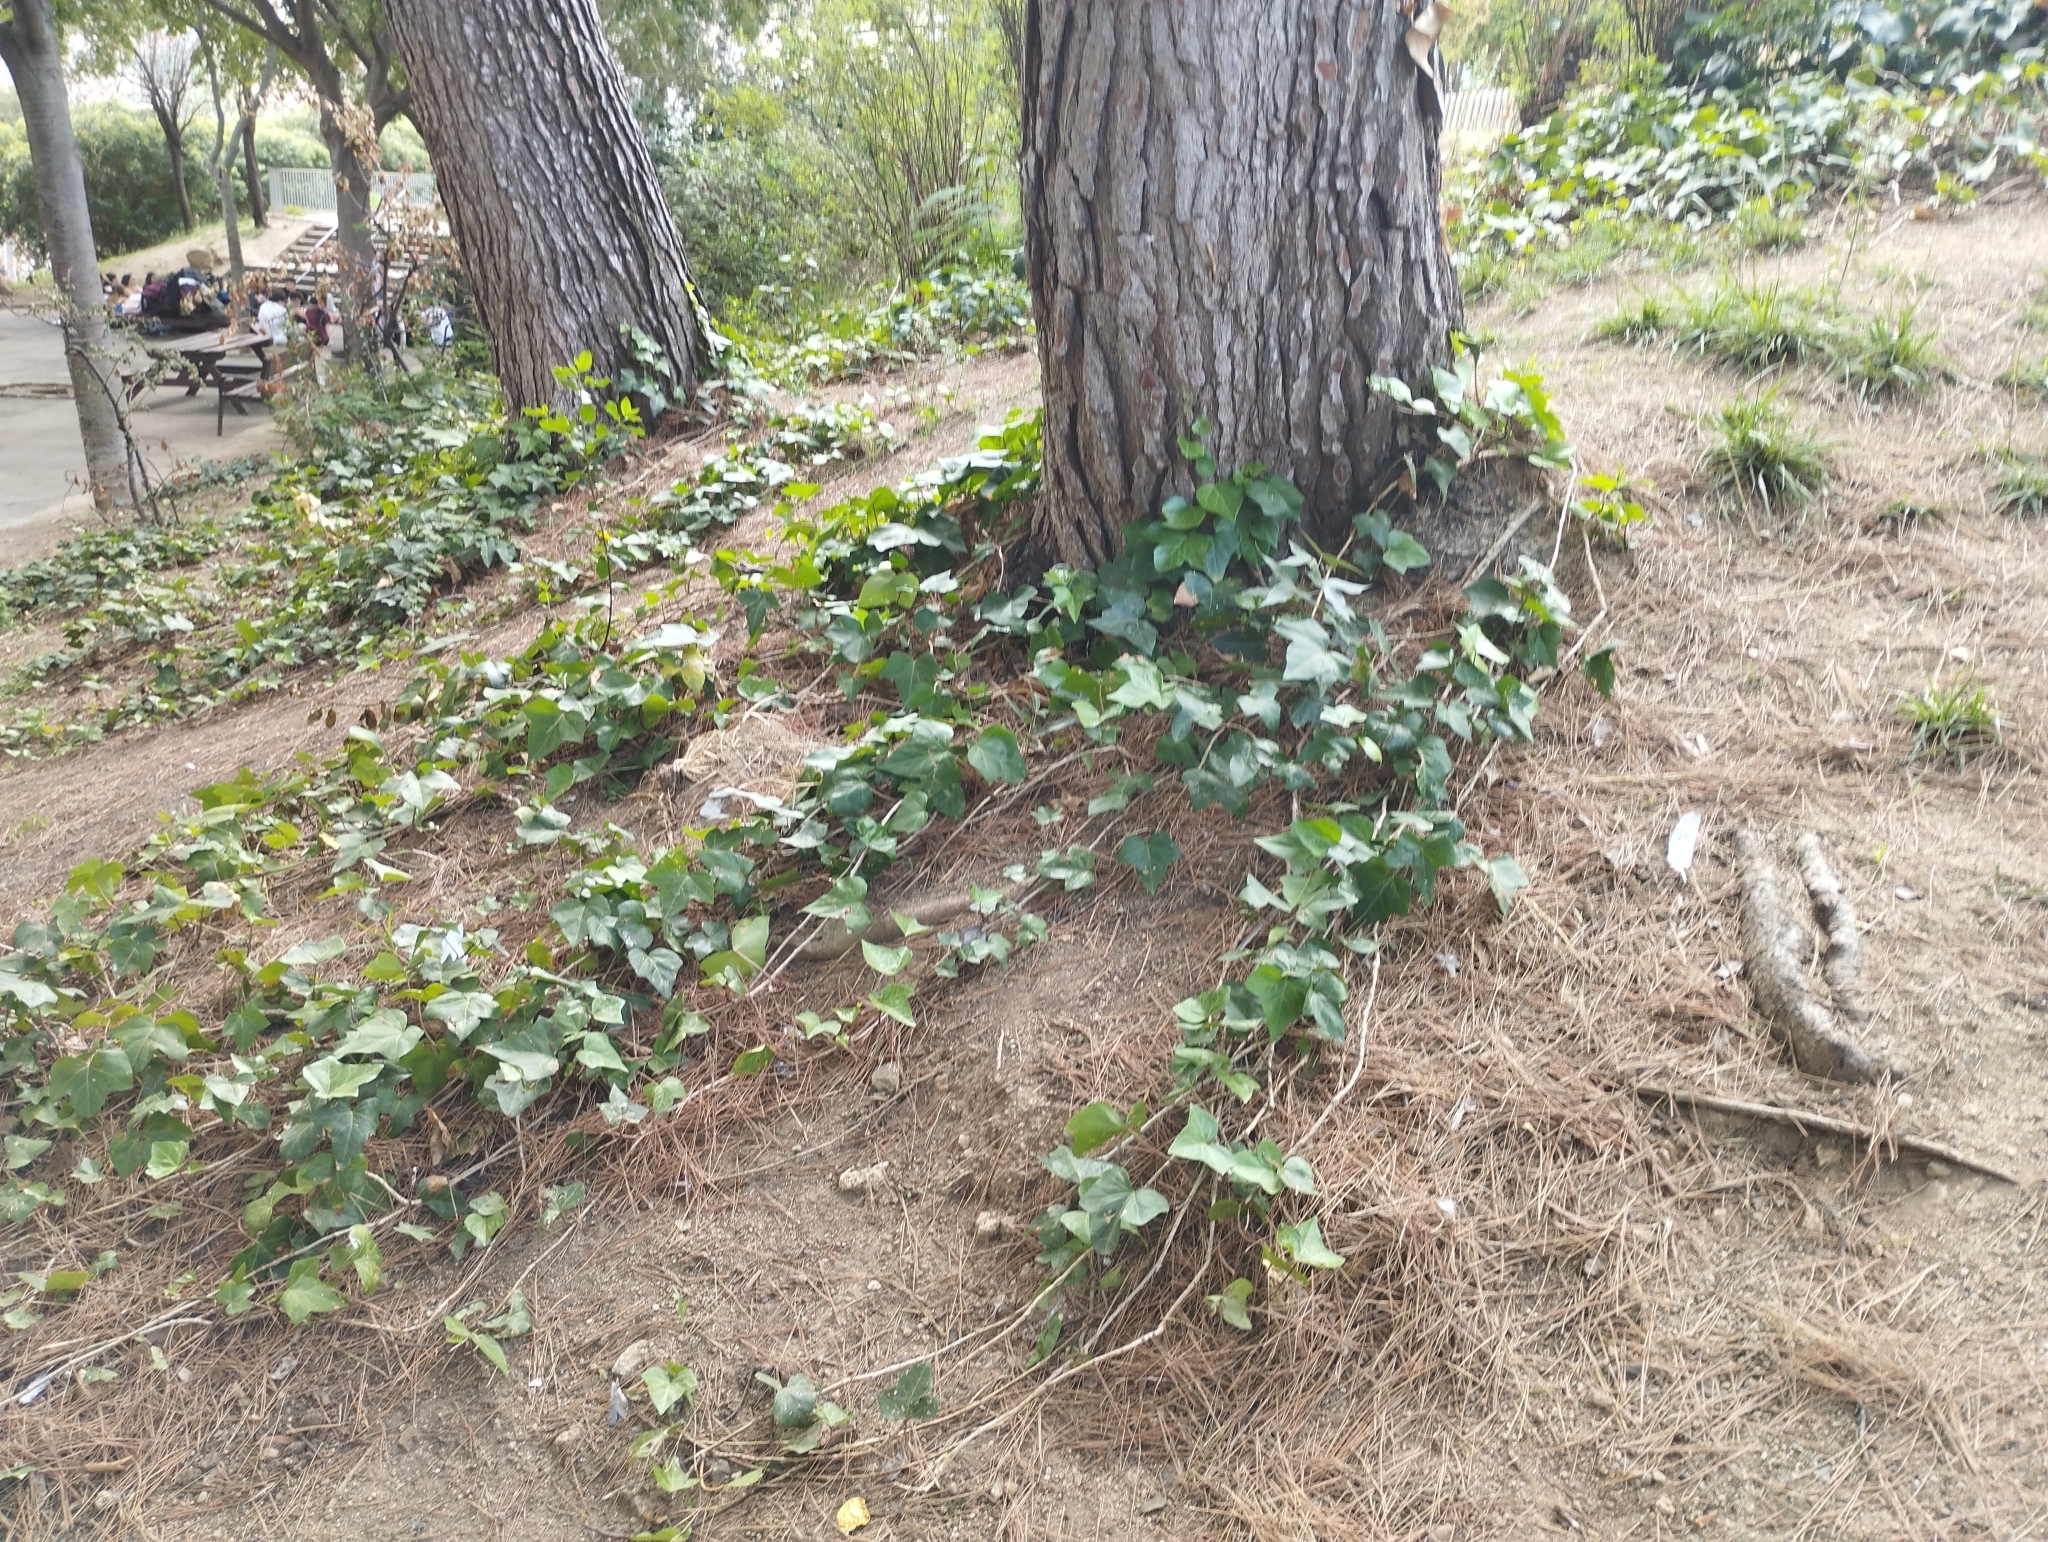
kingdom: Plantae
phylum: Tracheophyta
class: Magnoliopsida
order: Apiales
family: Araliaceae
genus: Hedera
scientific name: Hedera helix
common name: Ivy
